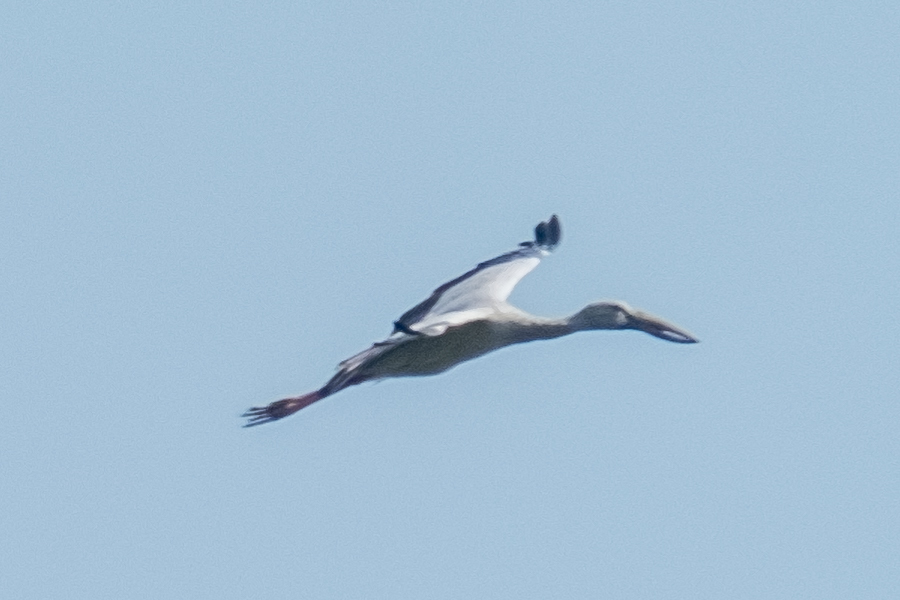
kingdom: Animalia
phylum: Chordata
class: Aves
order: Ciconiiformes
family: Ciconiidae
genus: Anastomus
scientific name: Anastomus oscitans
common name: Asian openbill
